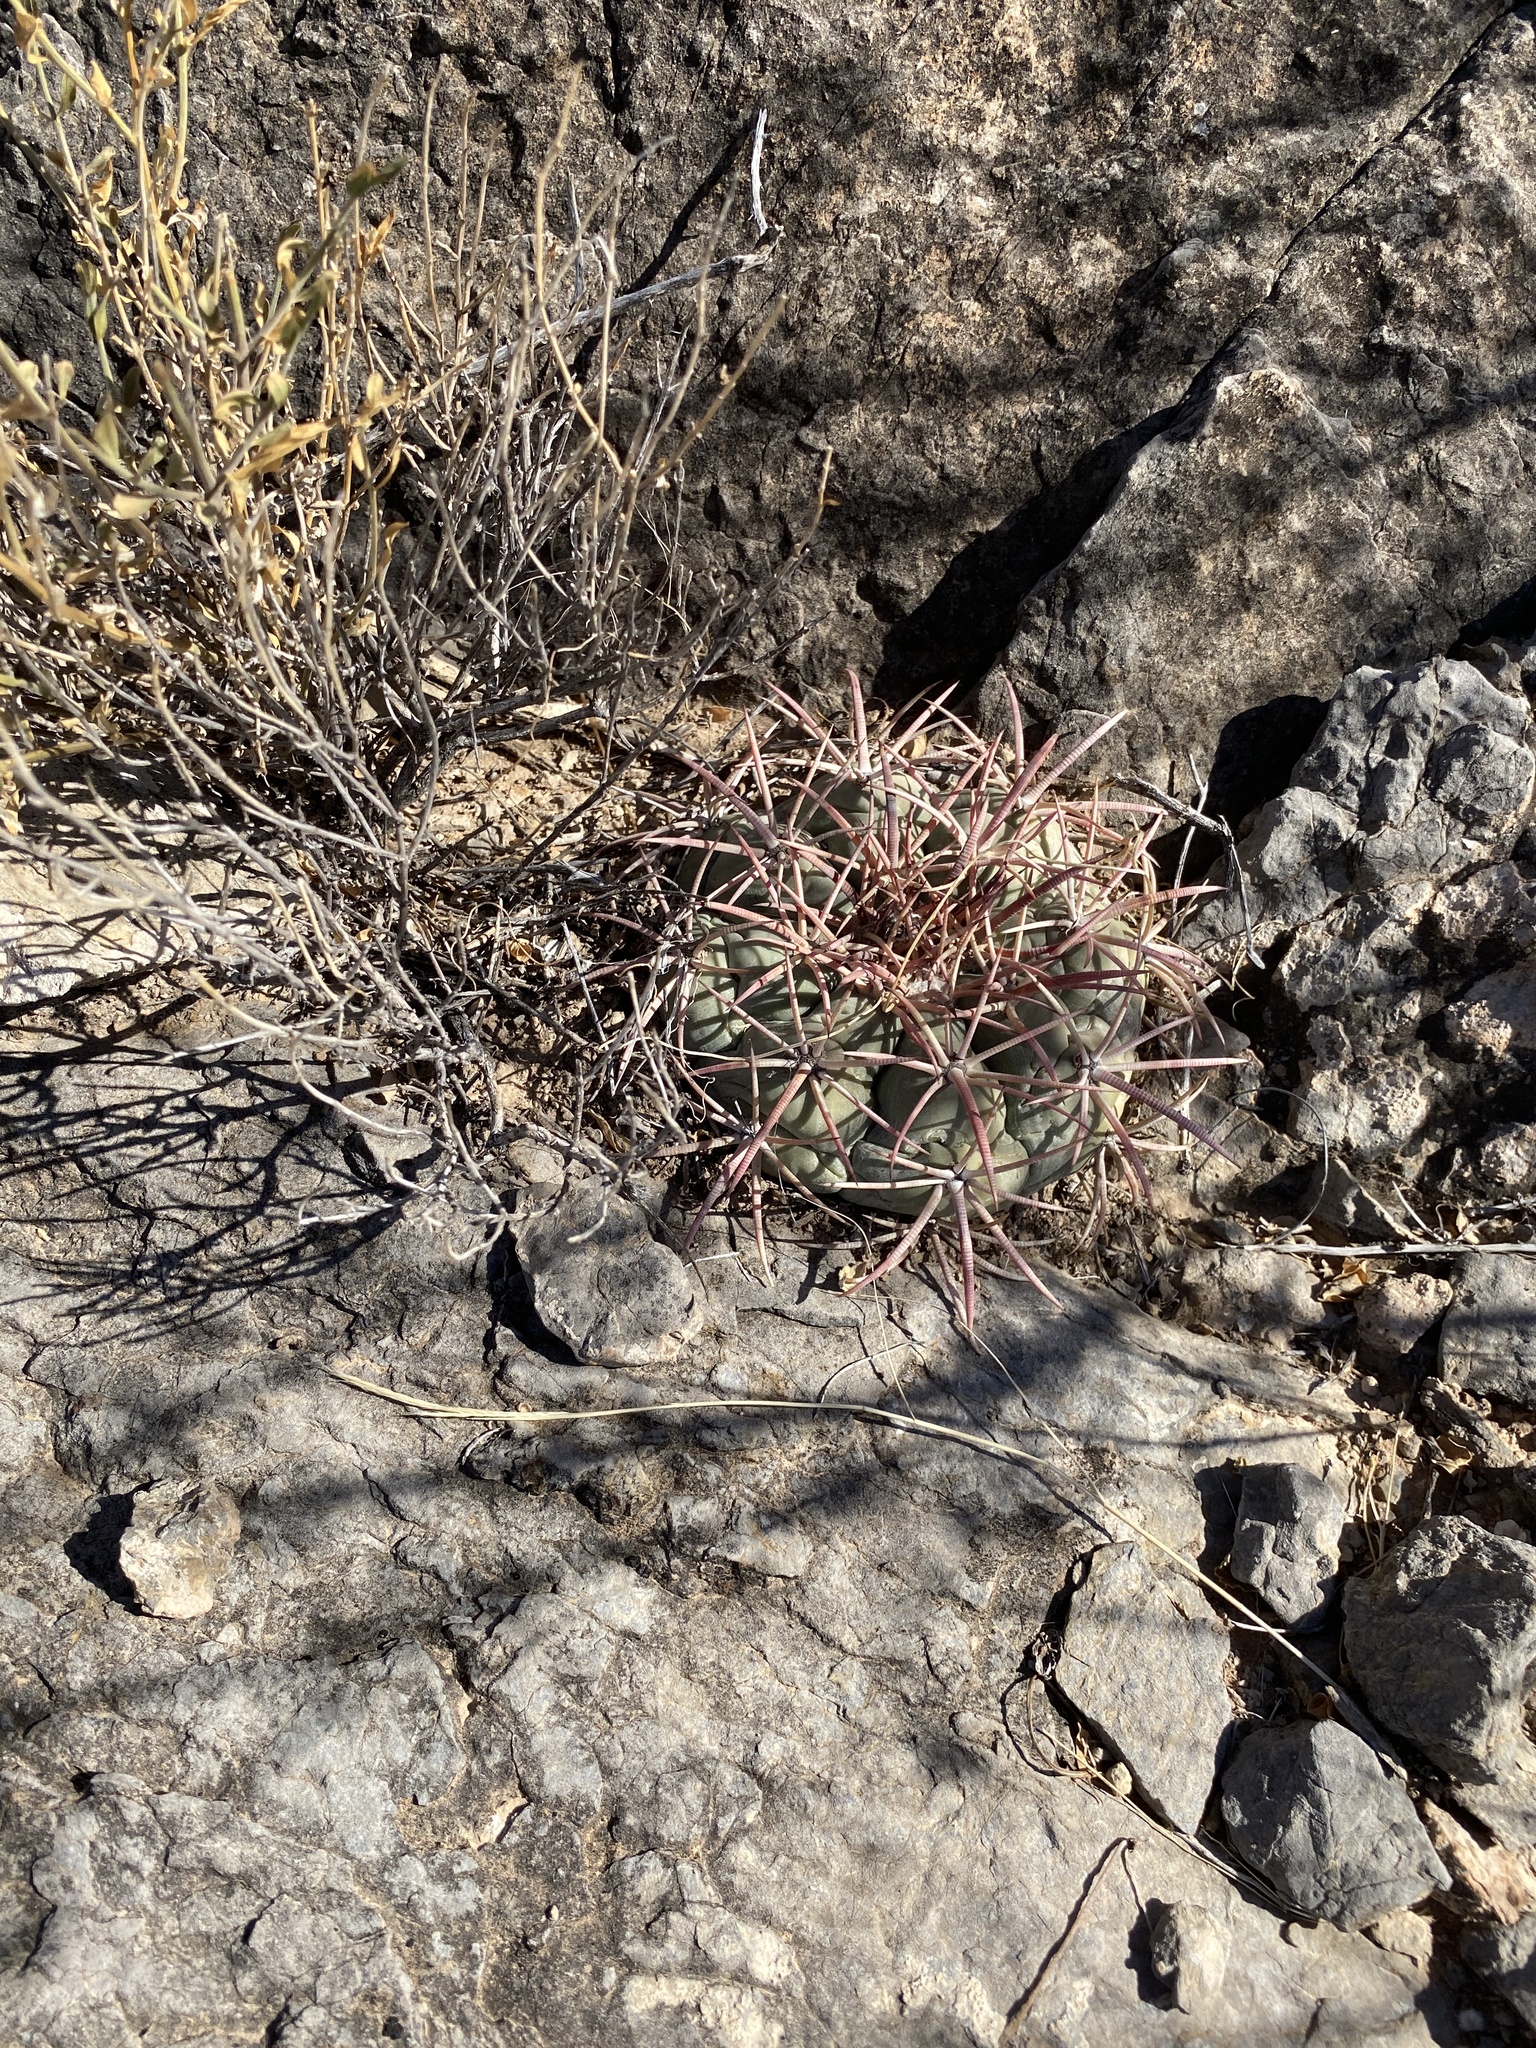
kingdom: Plantae
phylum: Tracheophyta
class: Magnoliopsida
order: Caryophyllales
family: Cactaceae
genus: Echinocactus
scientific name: Echinocactus horizonthalonius
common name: Devilshead
